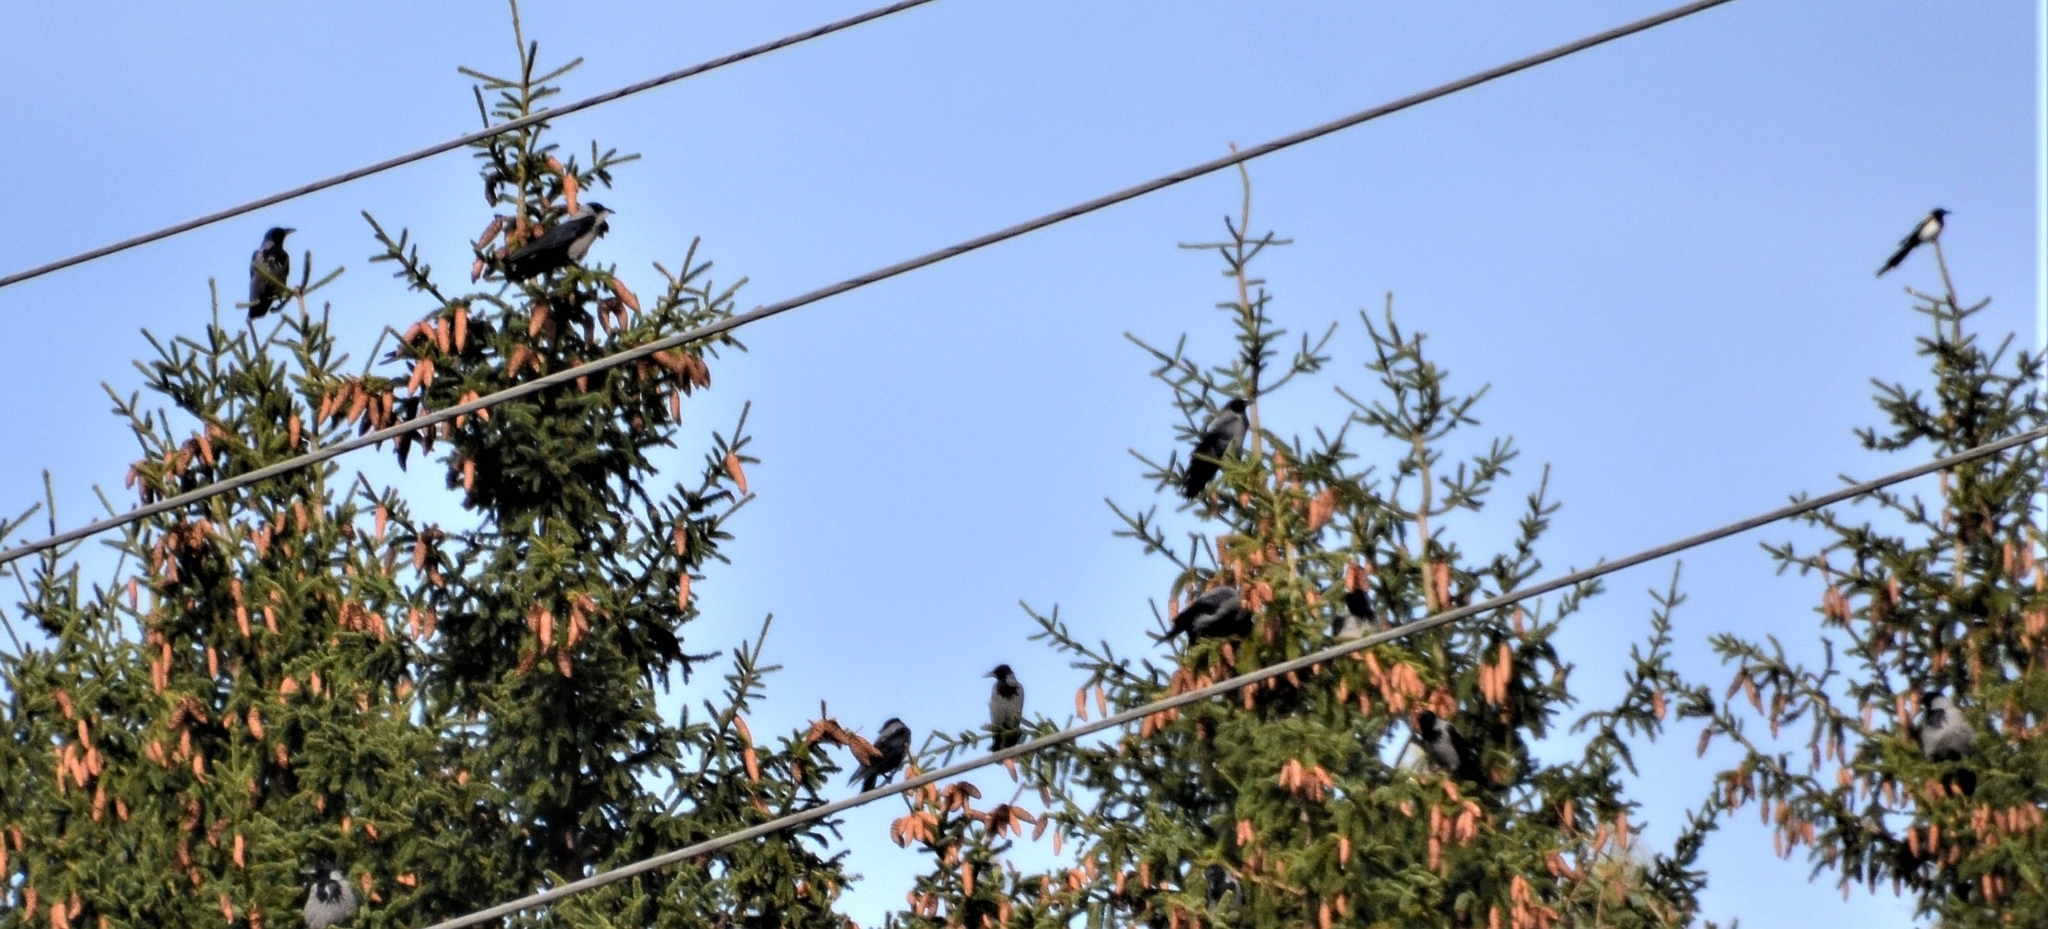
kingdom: Animalia
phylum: Chordata
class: Aves
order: Passeriformes
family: Corvidae
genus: Corvus
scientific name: Corvus cornix
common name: Hooded crow
